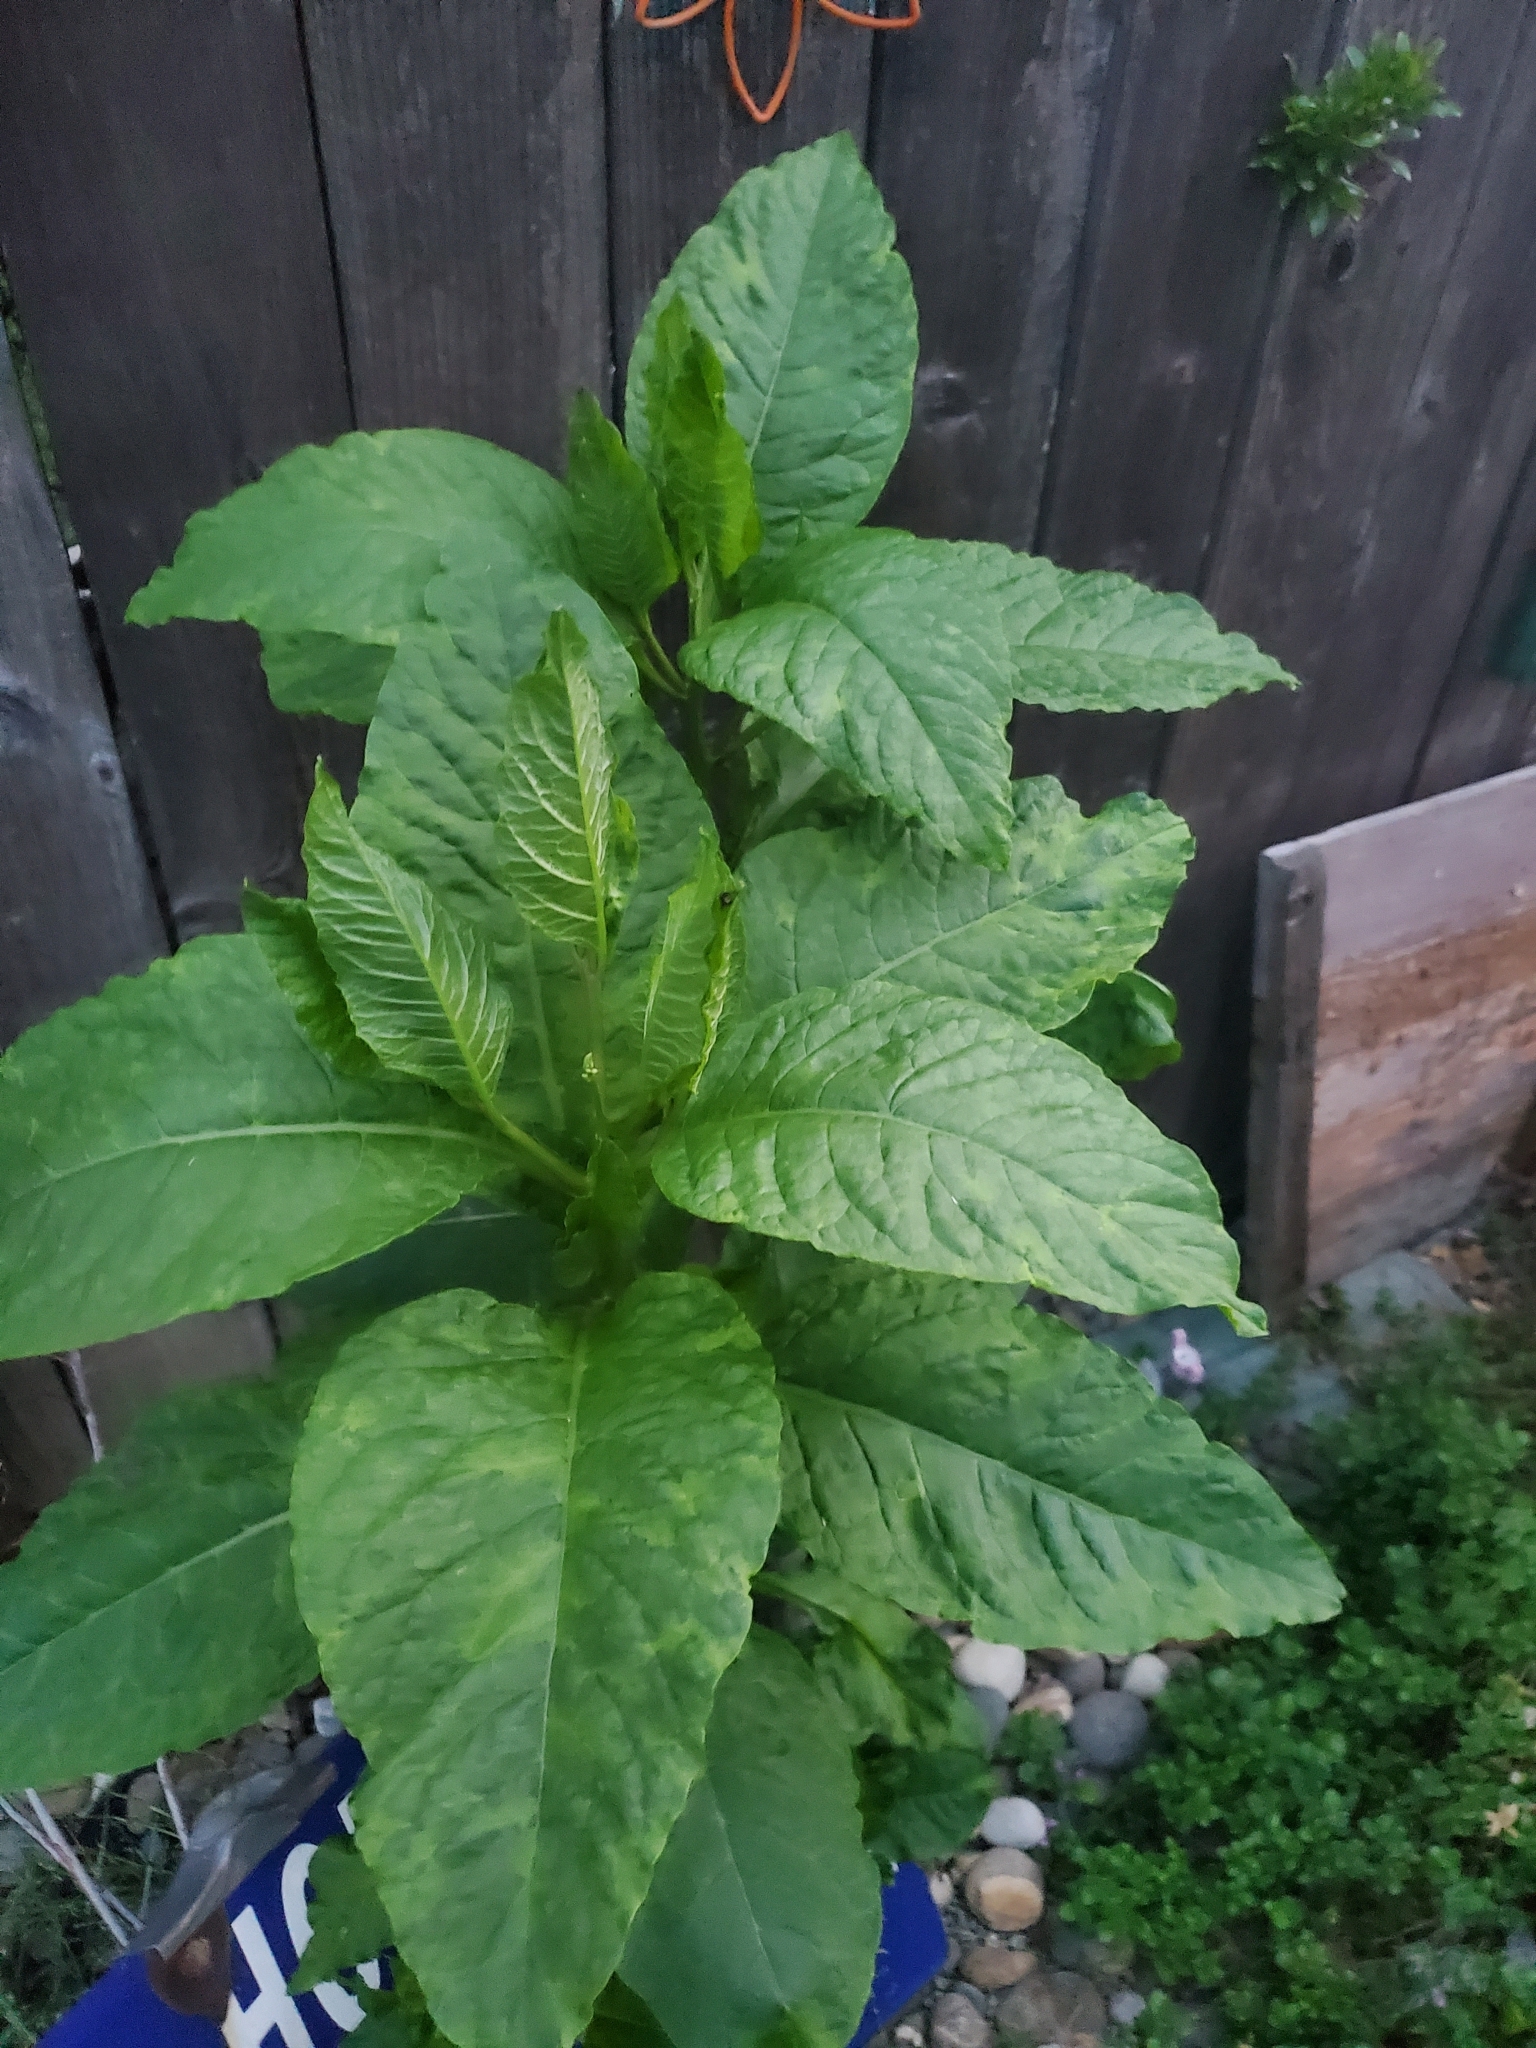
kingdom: Viruses
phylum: Pisuviricota
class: Stelpaviricetes
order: Patatavirales
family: Potyviridae
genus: Potyvirus
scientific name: Potyvirus Pokeweed mosaic virus
